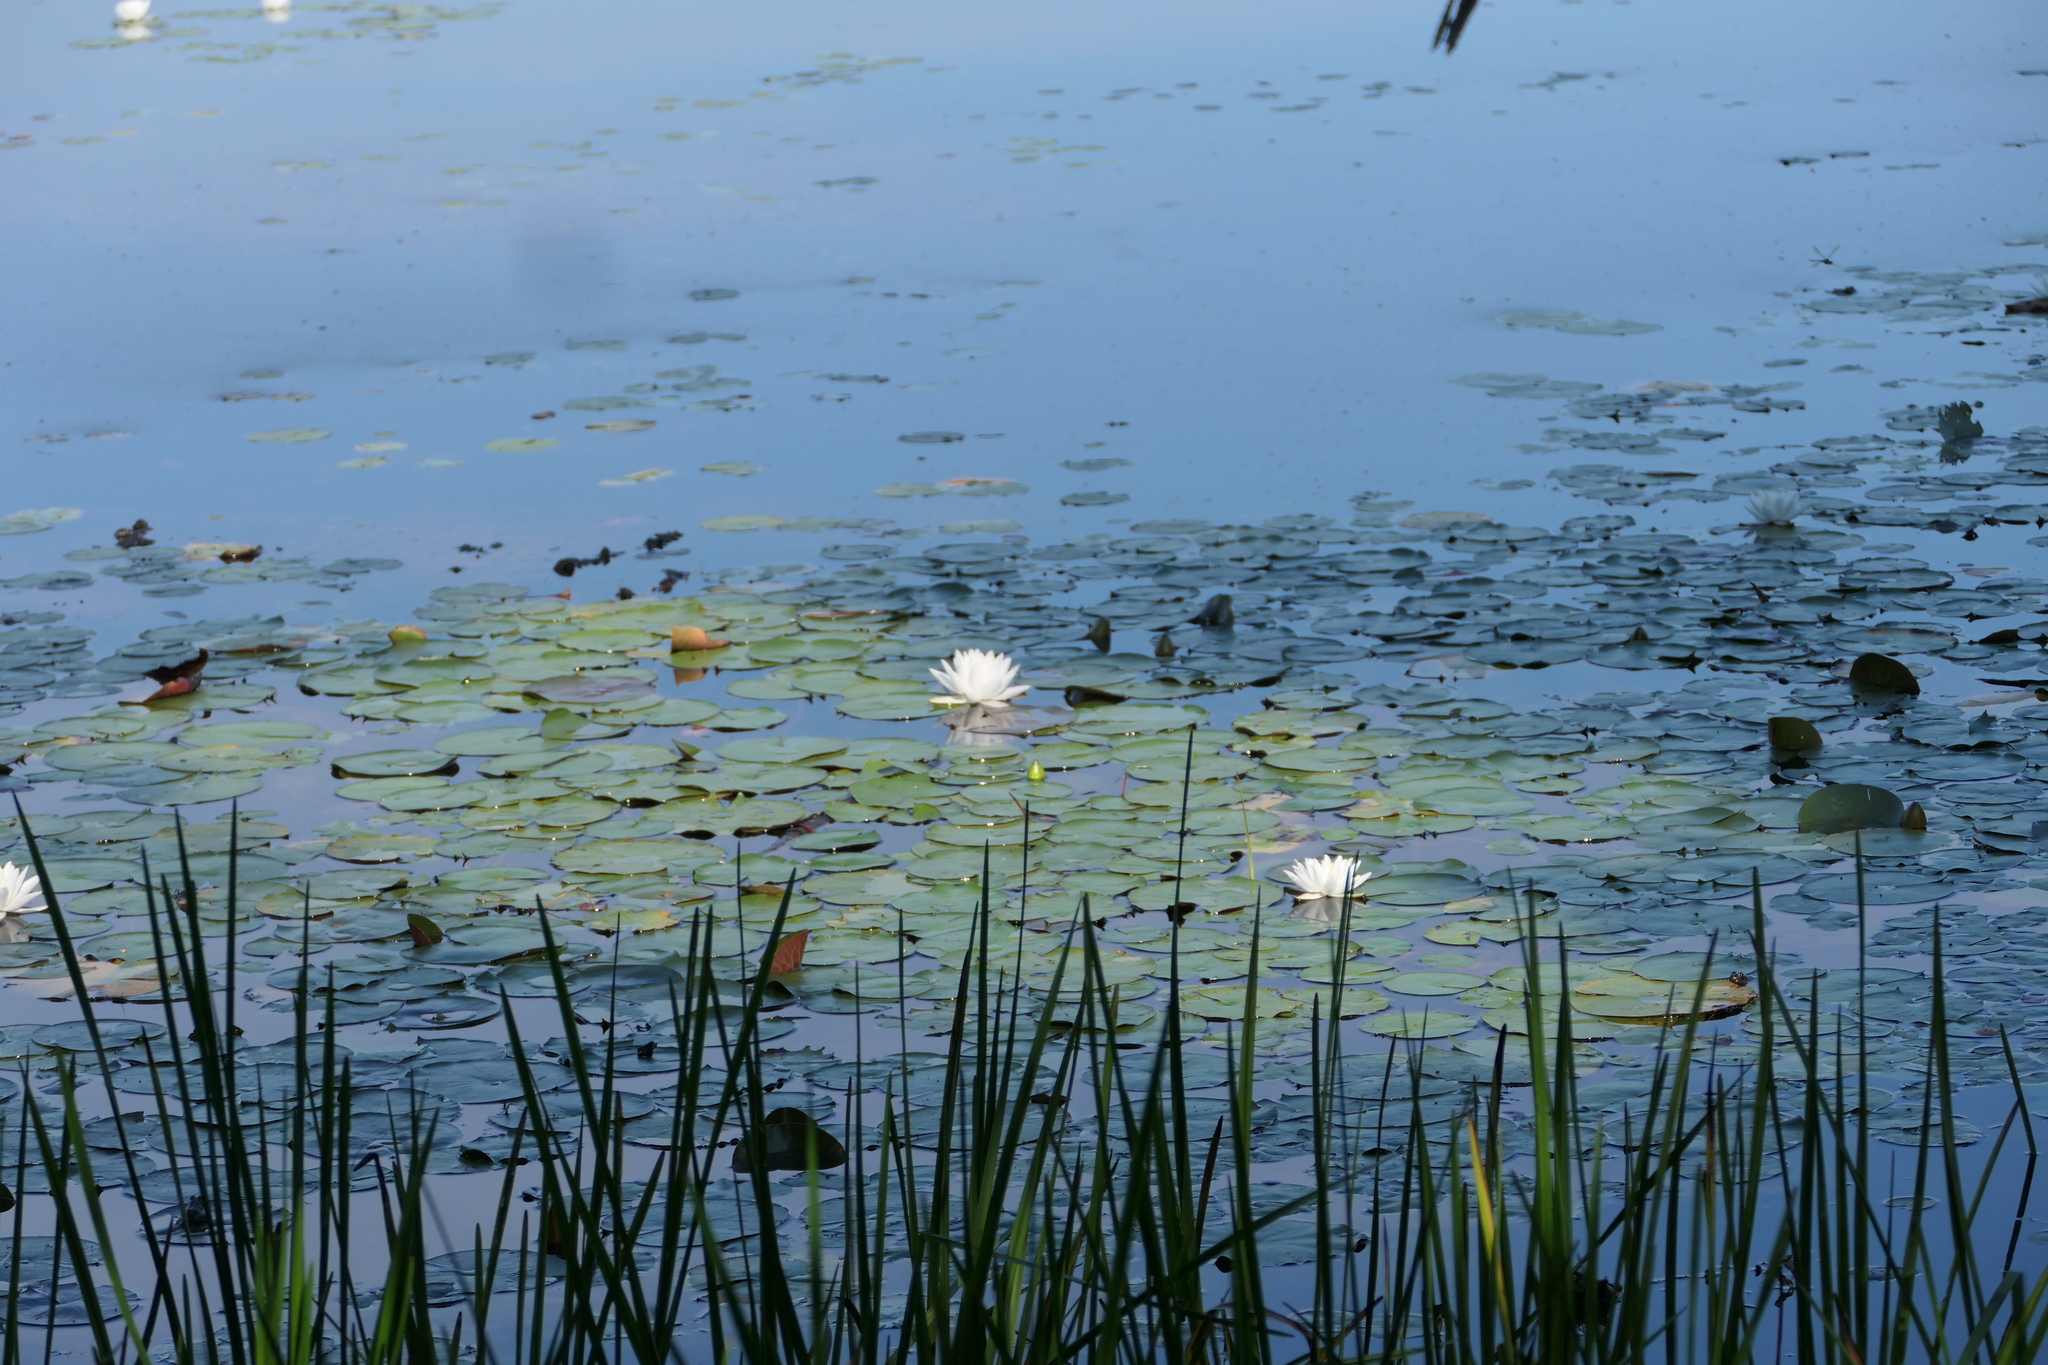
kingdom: Plantae
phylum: Tracheophyta
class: Magnoliopsida
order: Nymphaeales
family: Nymphaeaceae
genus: Nymphaea
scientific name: Nymphaea odorata
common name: Fragrant water-lily
